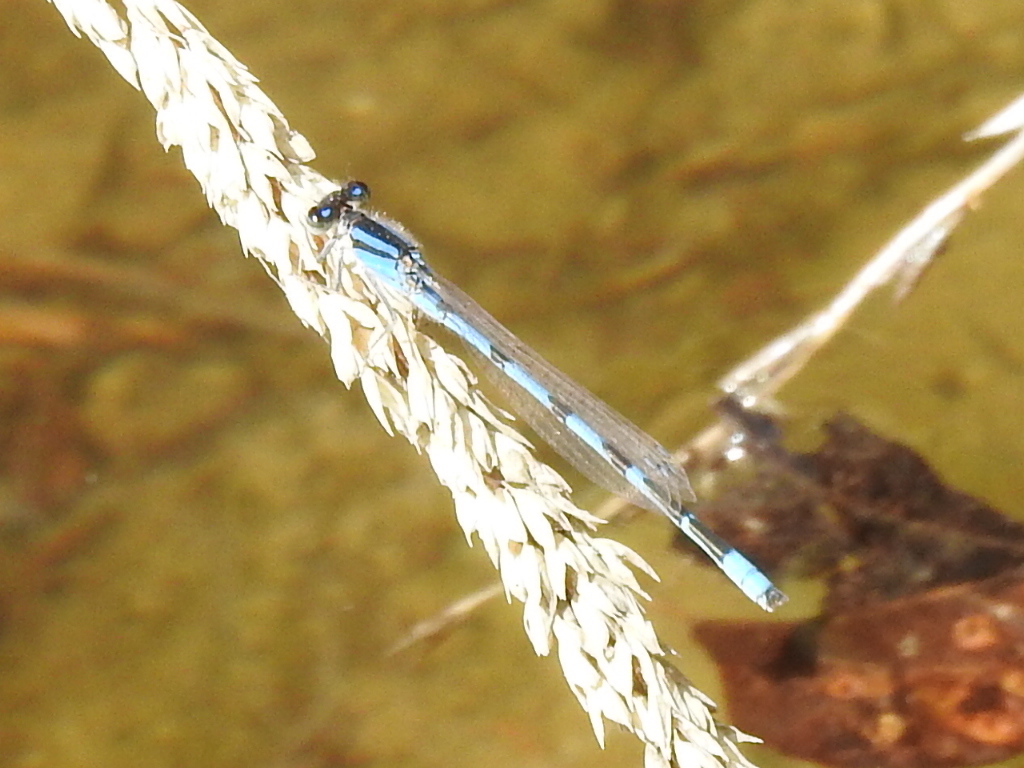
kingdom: Animalia
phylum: Arthropoda
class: Insecta
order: Odonata
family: Coenagrionidae
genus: Enallagma
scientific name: Enallagma civile
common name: Damselfly
